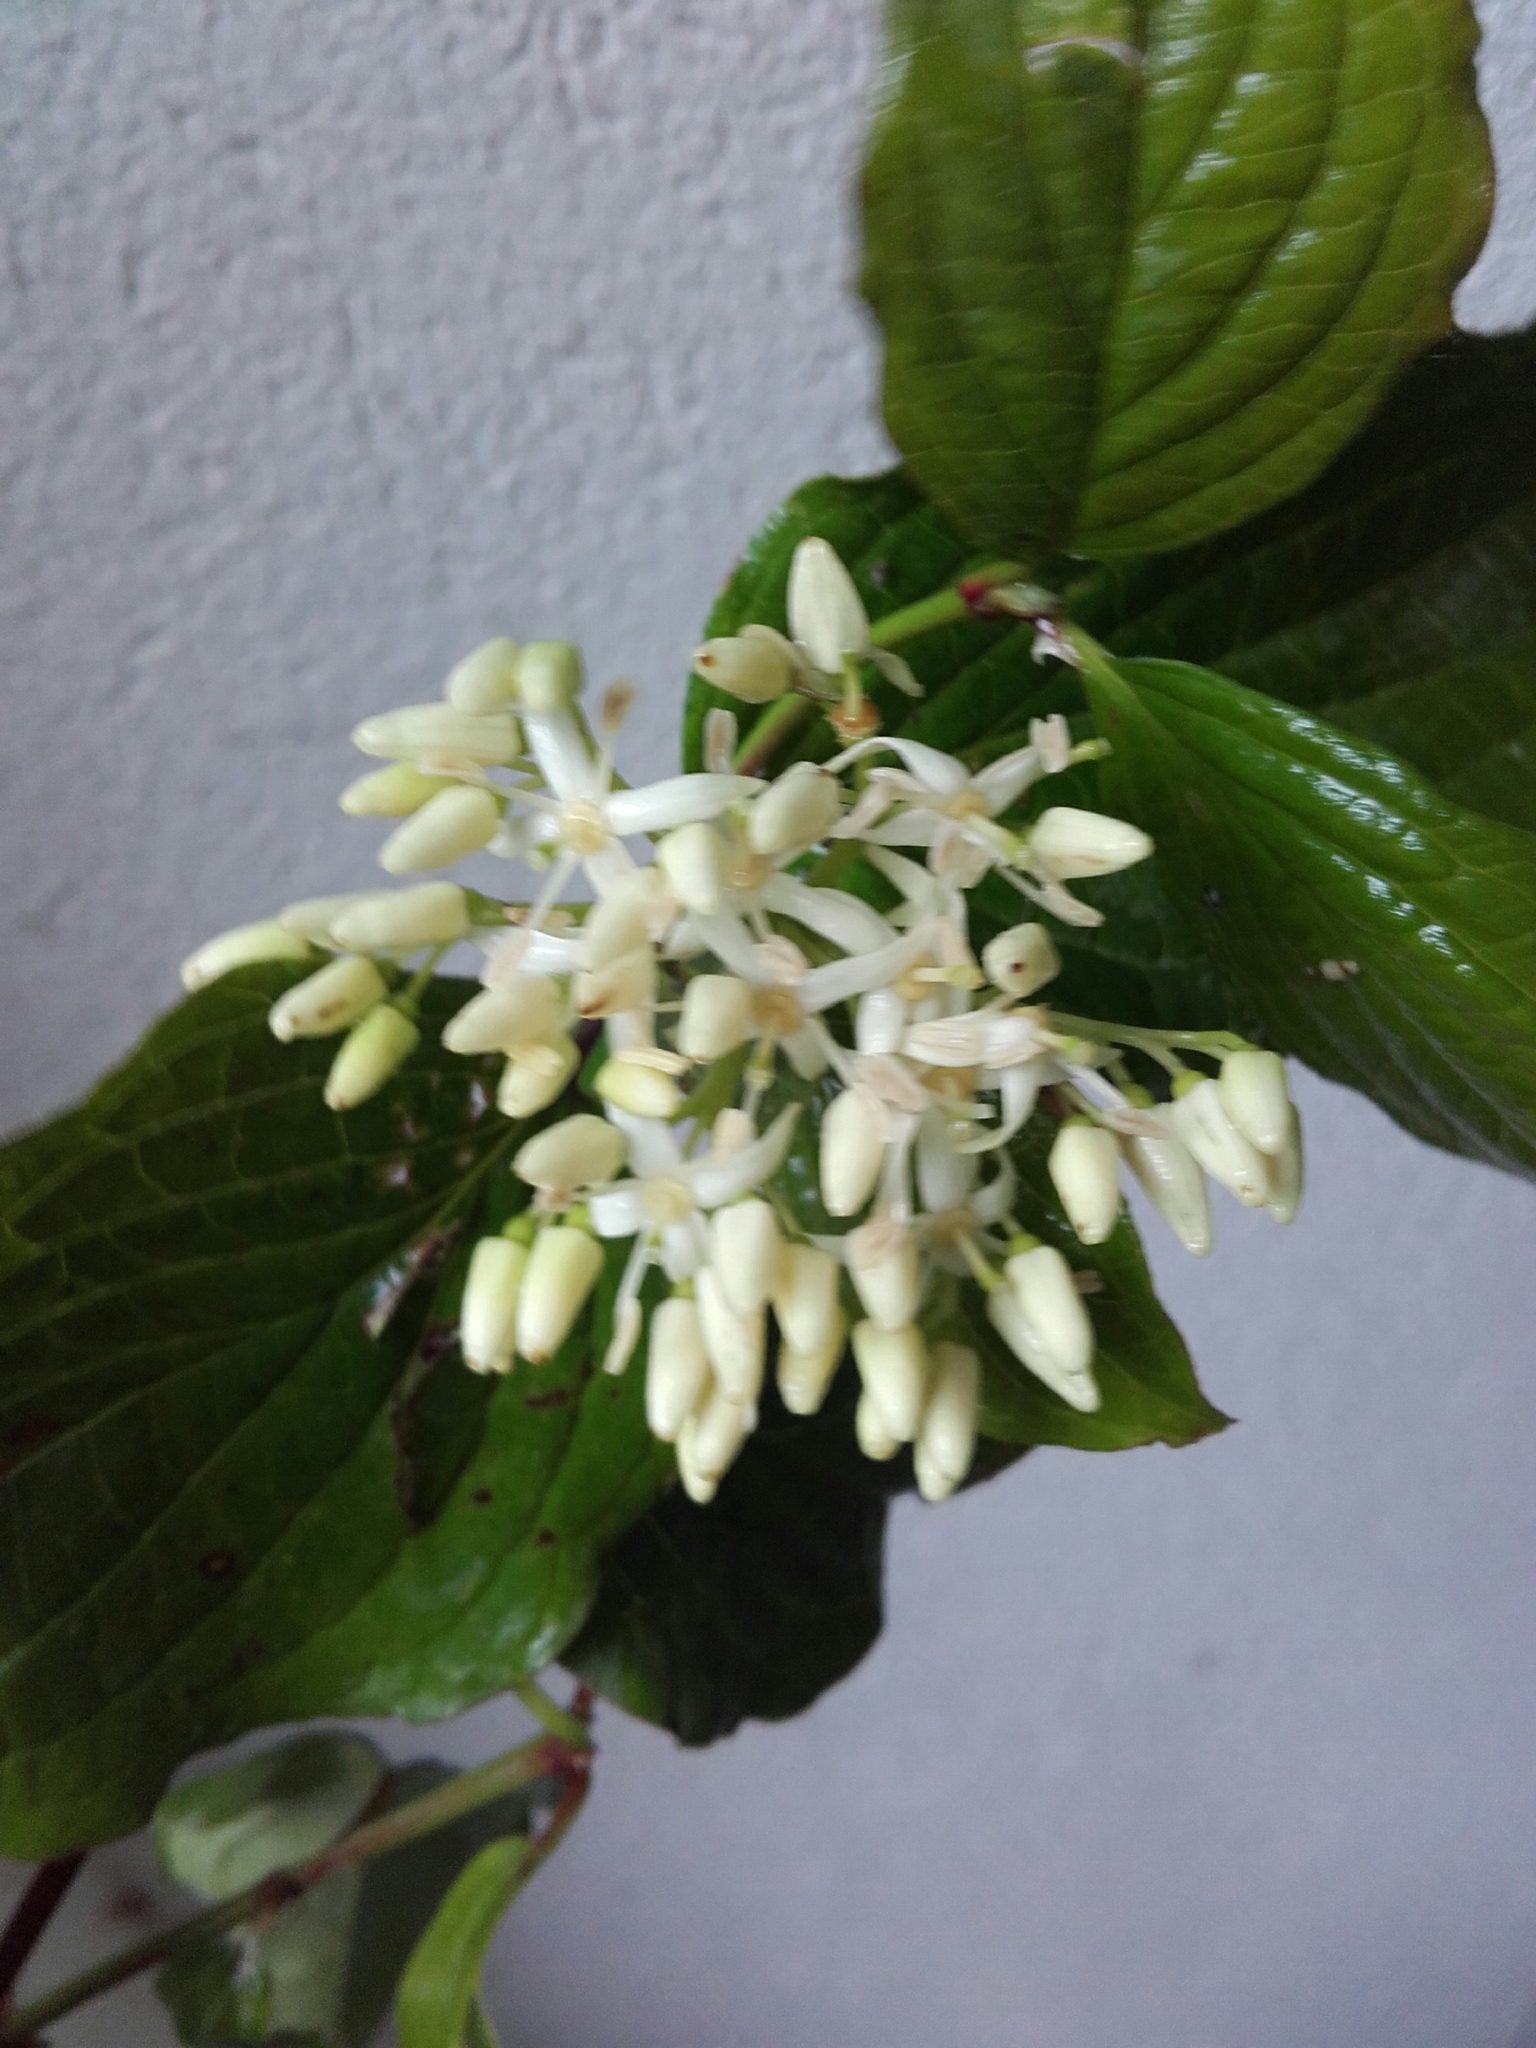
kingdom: Plantae
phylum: Tracheophyta
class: Magnoliopsida
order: Cornales
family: Cornaceae
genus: Cornus
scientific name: Cornus sanguinea
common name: Dogwood
